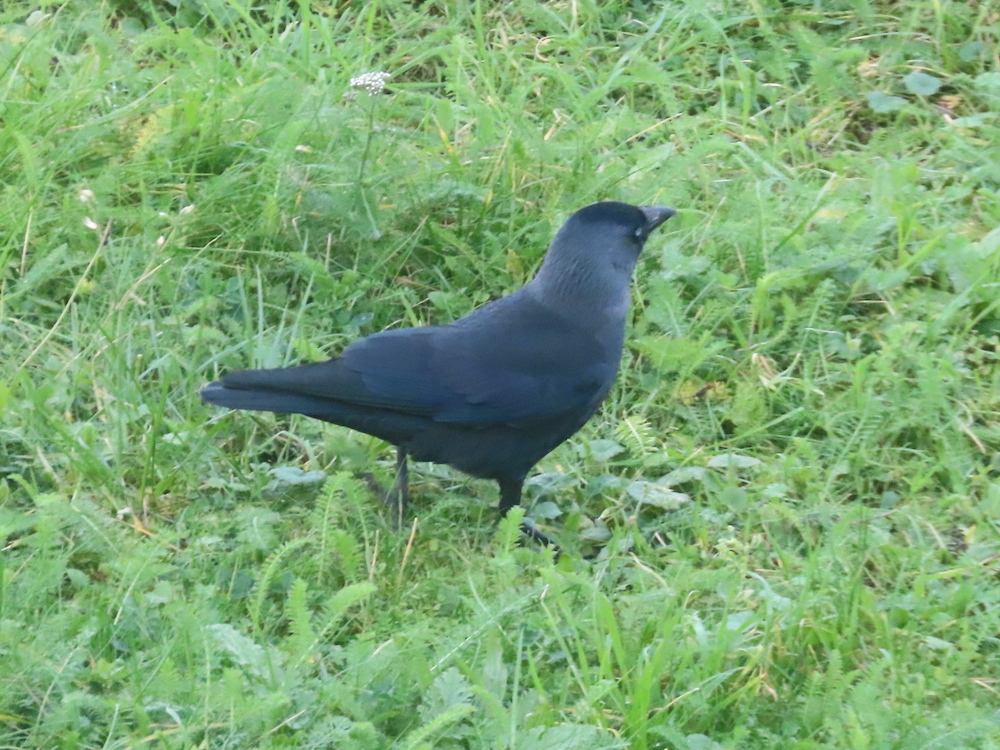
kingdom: Animalia
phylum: Chordata
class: Aves
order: Passeriformes
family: Corvidae
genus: Coloeus
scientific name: Coloeus monedula
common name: Western jackdaw
